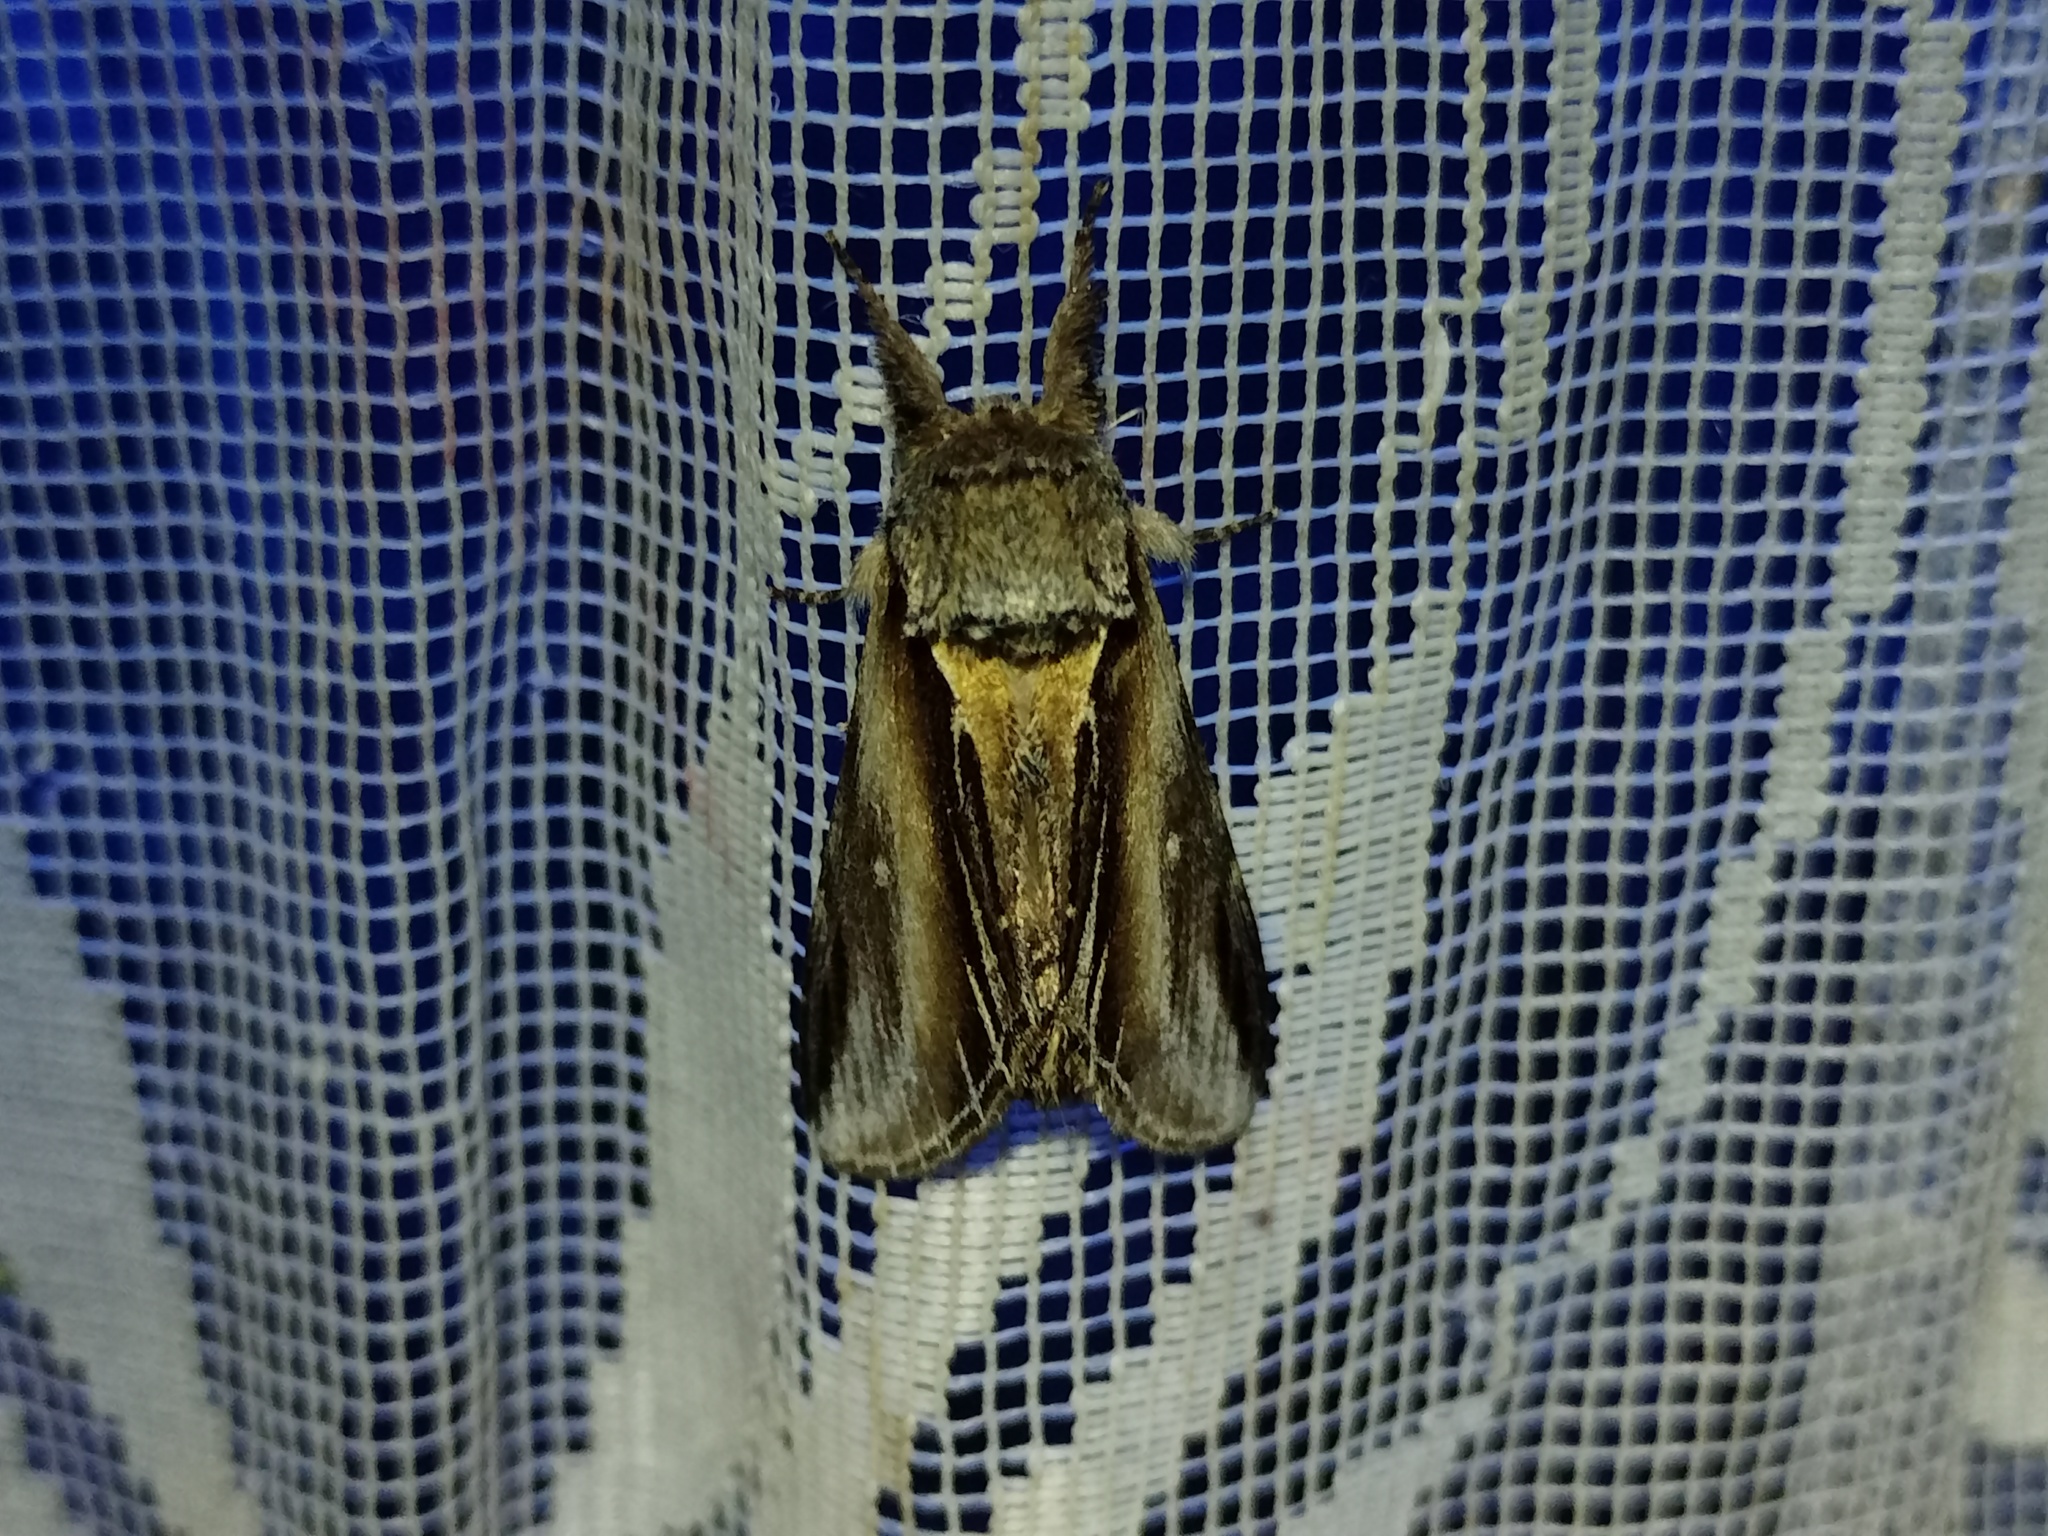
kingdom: Animalia
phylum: Arthropoda
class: Insecta
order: Lepidoptera
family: Notodontidae
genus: Pheosia
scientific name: Pheosia tremula
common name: Swallow prominent
